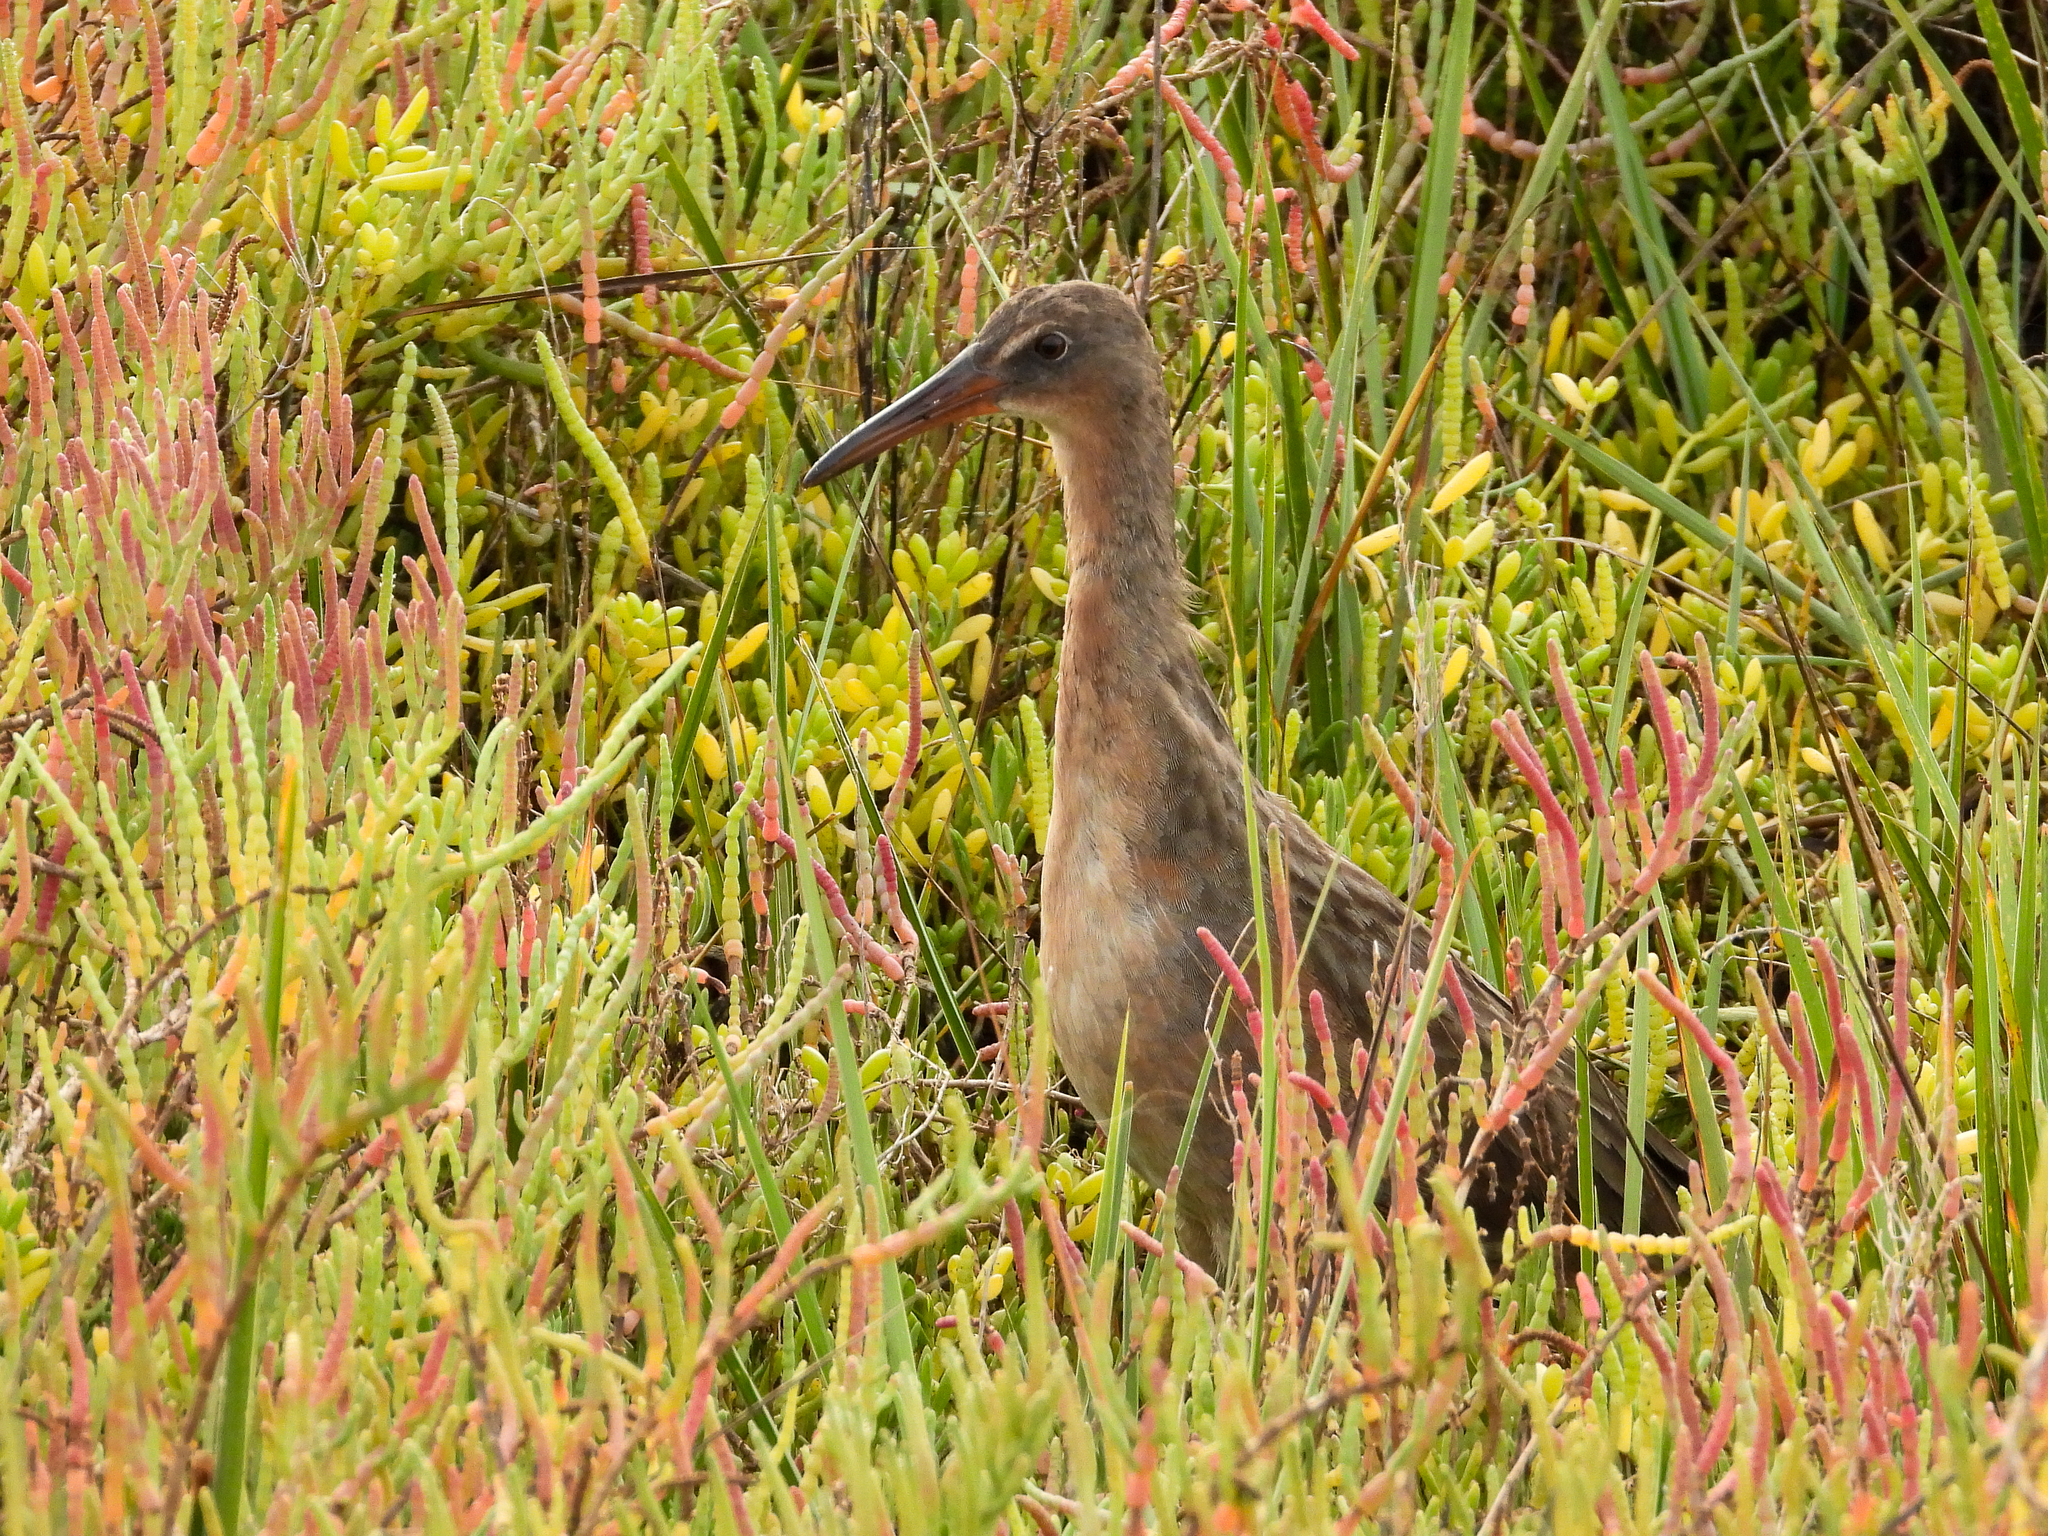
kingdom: Animalia
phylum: Chordata
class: Aves
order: Gruiformes
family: Rallidae
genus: Rallus
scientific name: Rallus obsoletus
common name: Ridgway's rail
